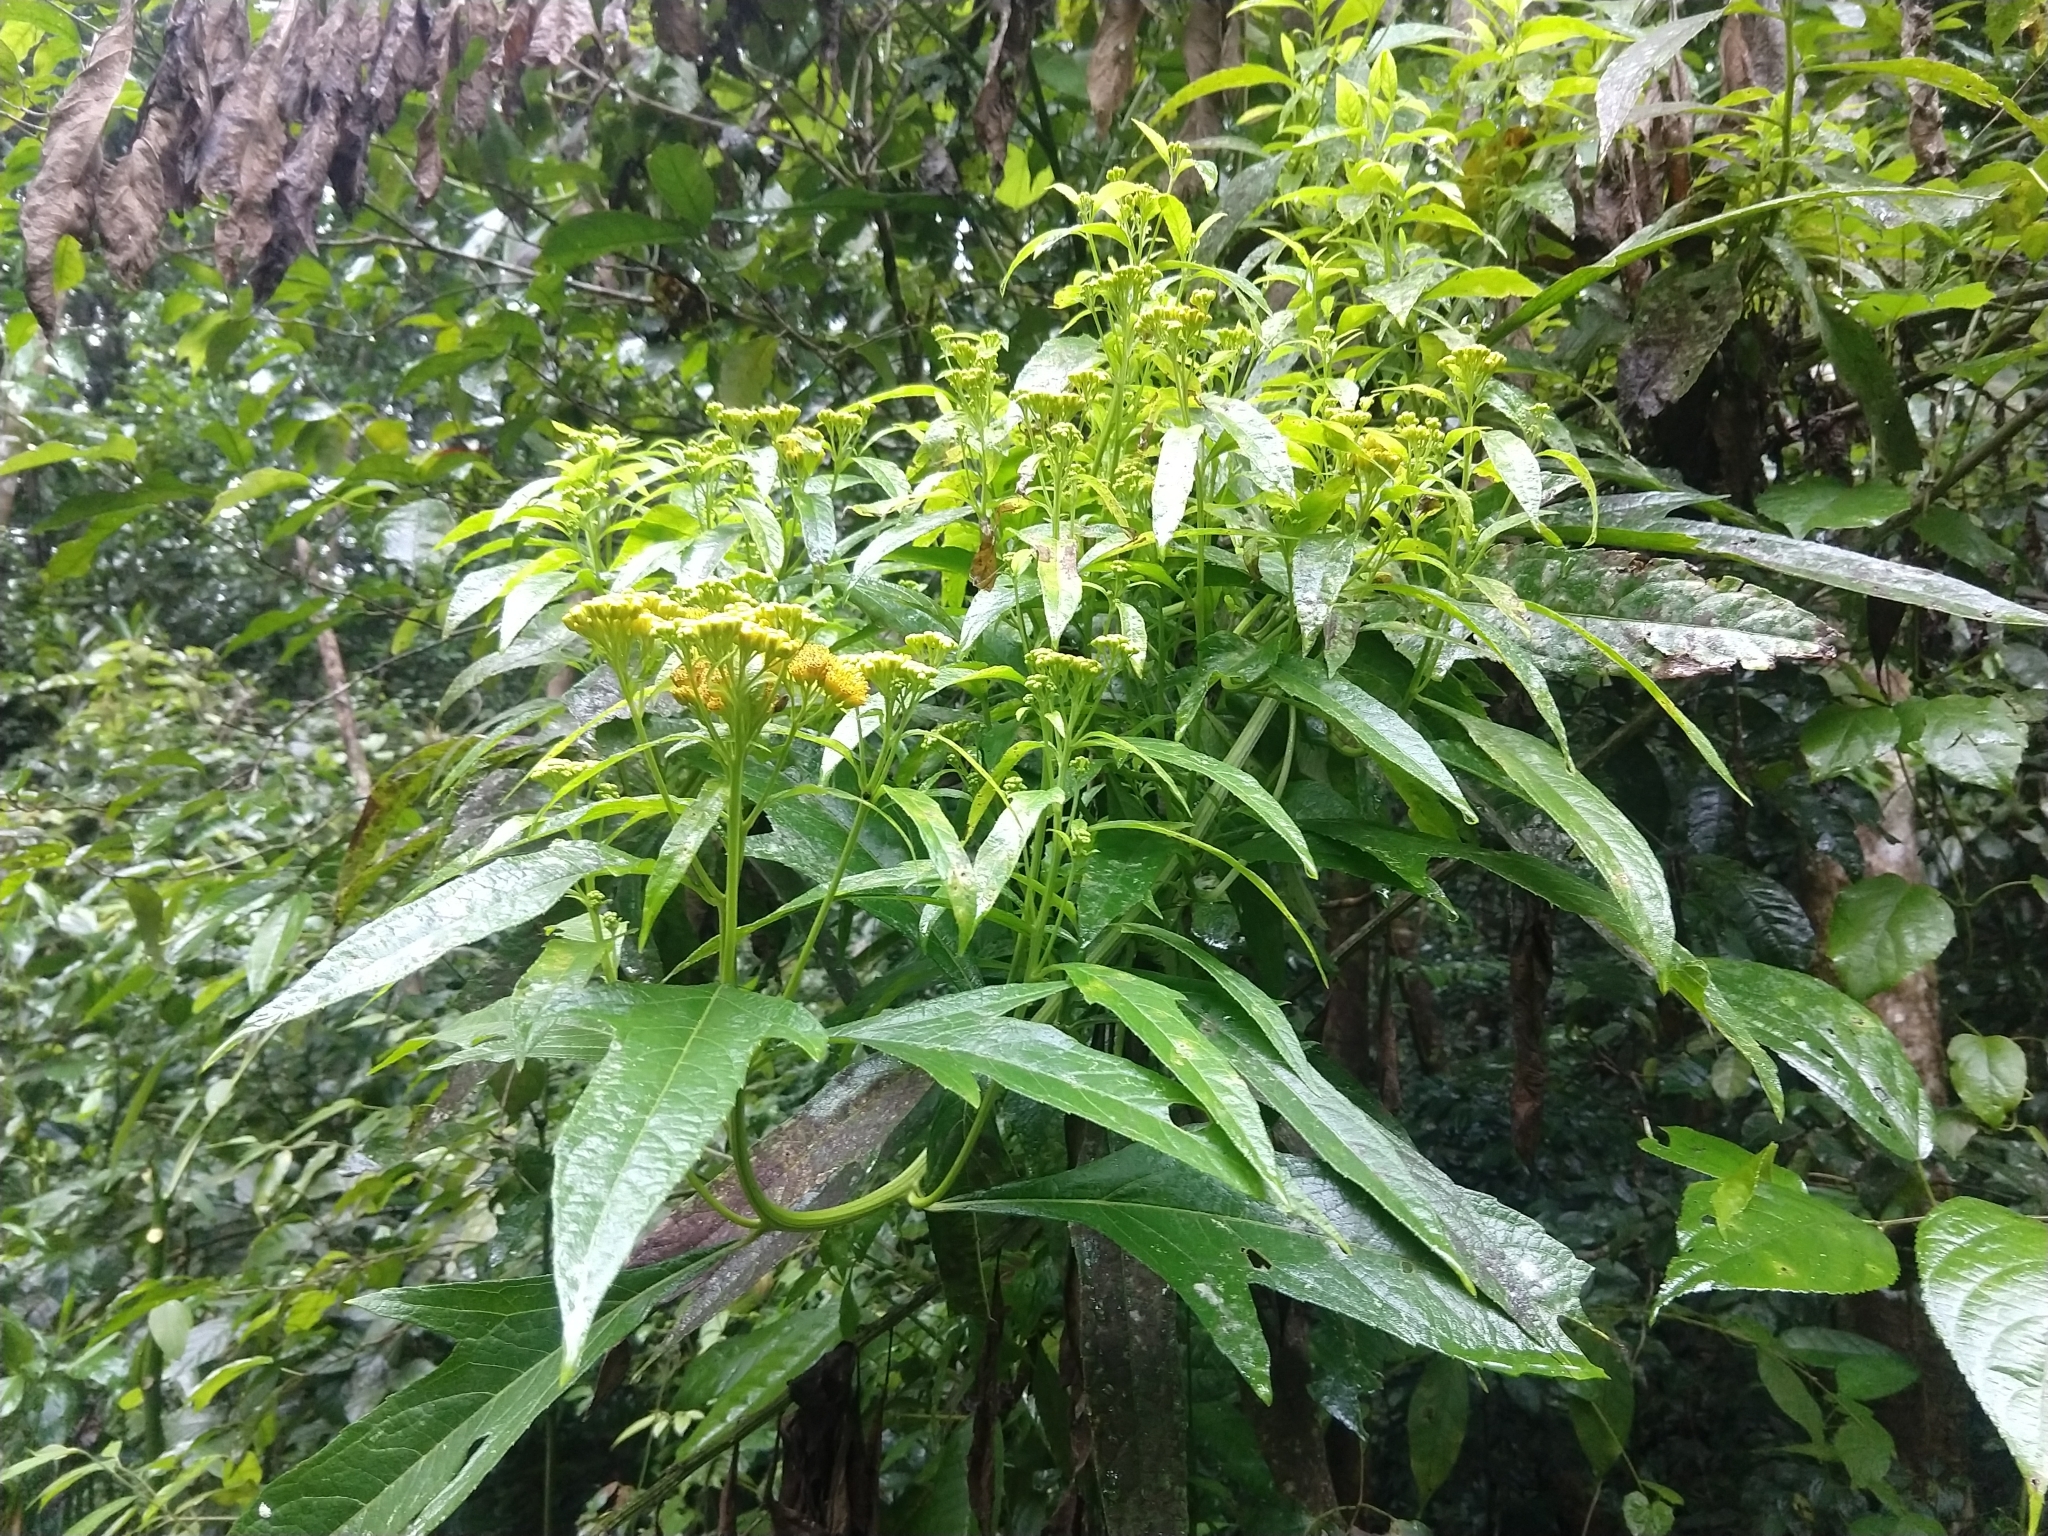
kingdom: Plantae
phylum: Tracheophyta
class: Magnoliopsida
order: Asterales
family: Asteraceae
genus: Neurolaena
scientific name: Neurolaena lobata
